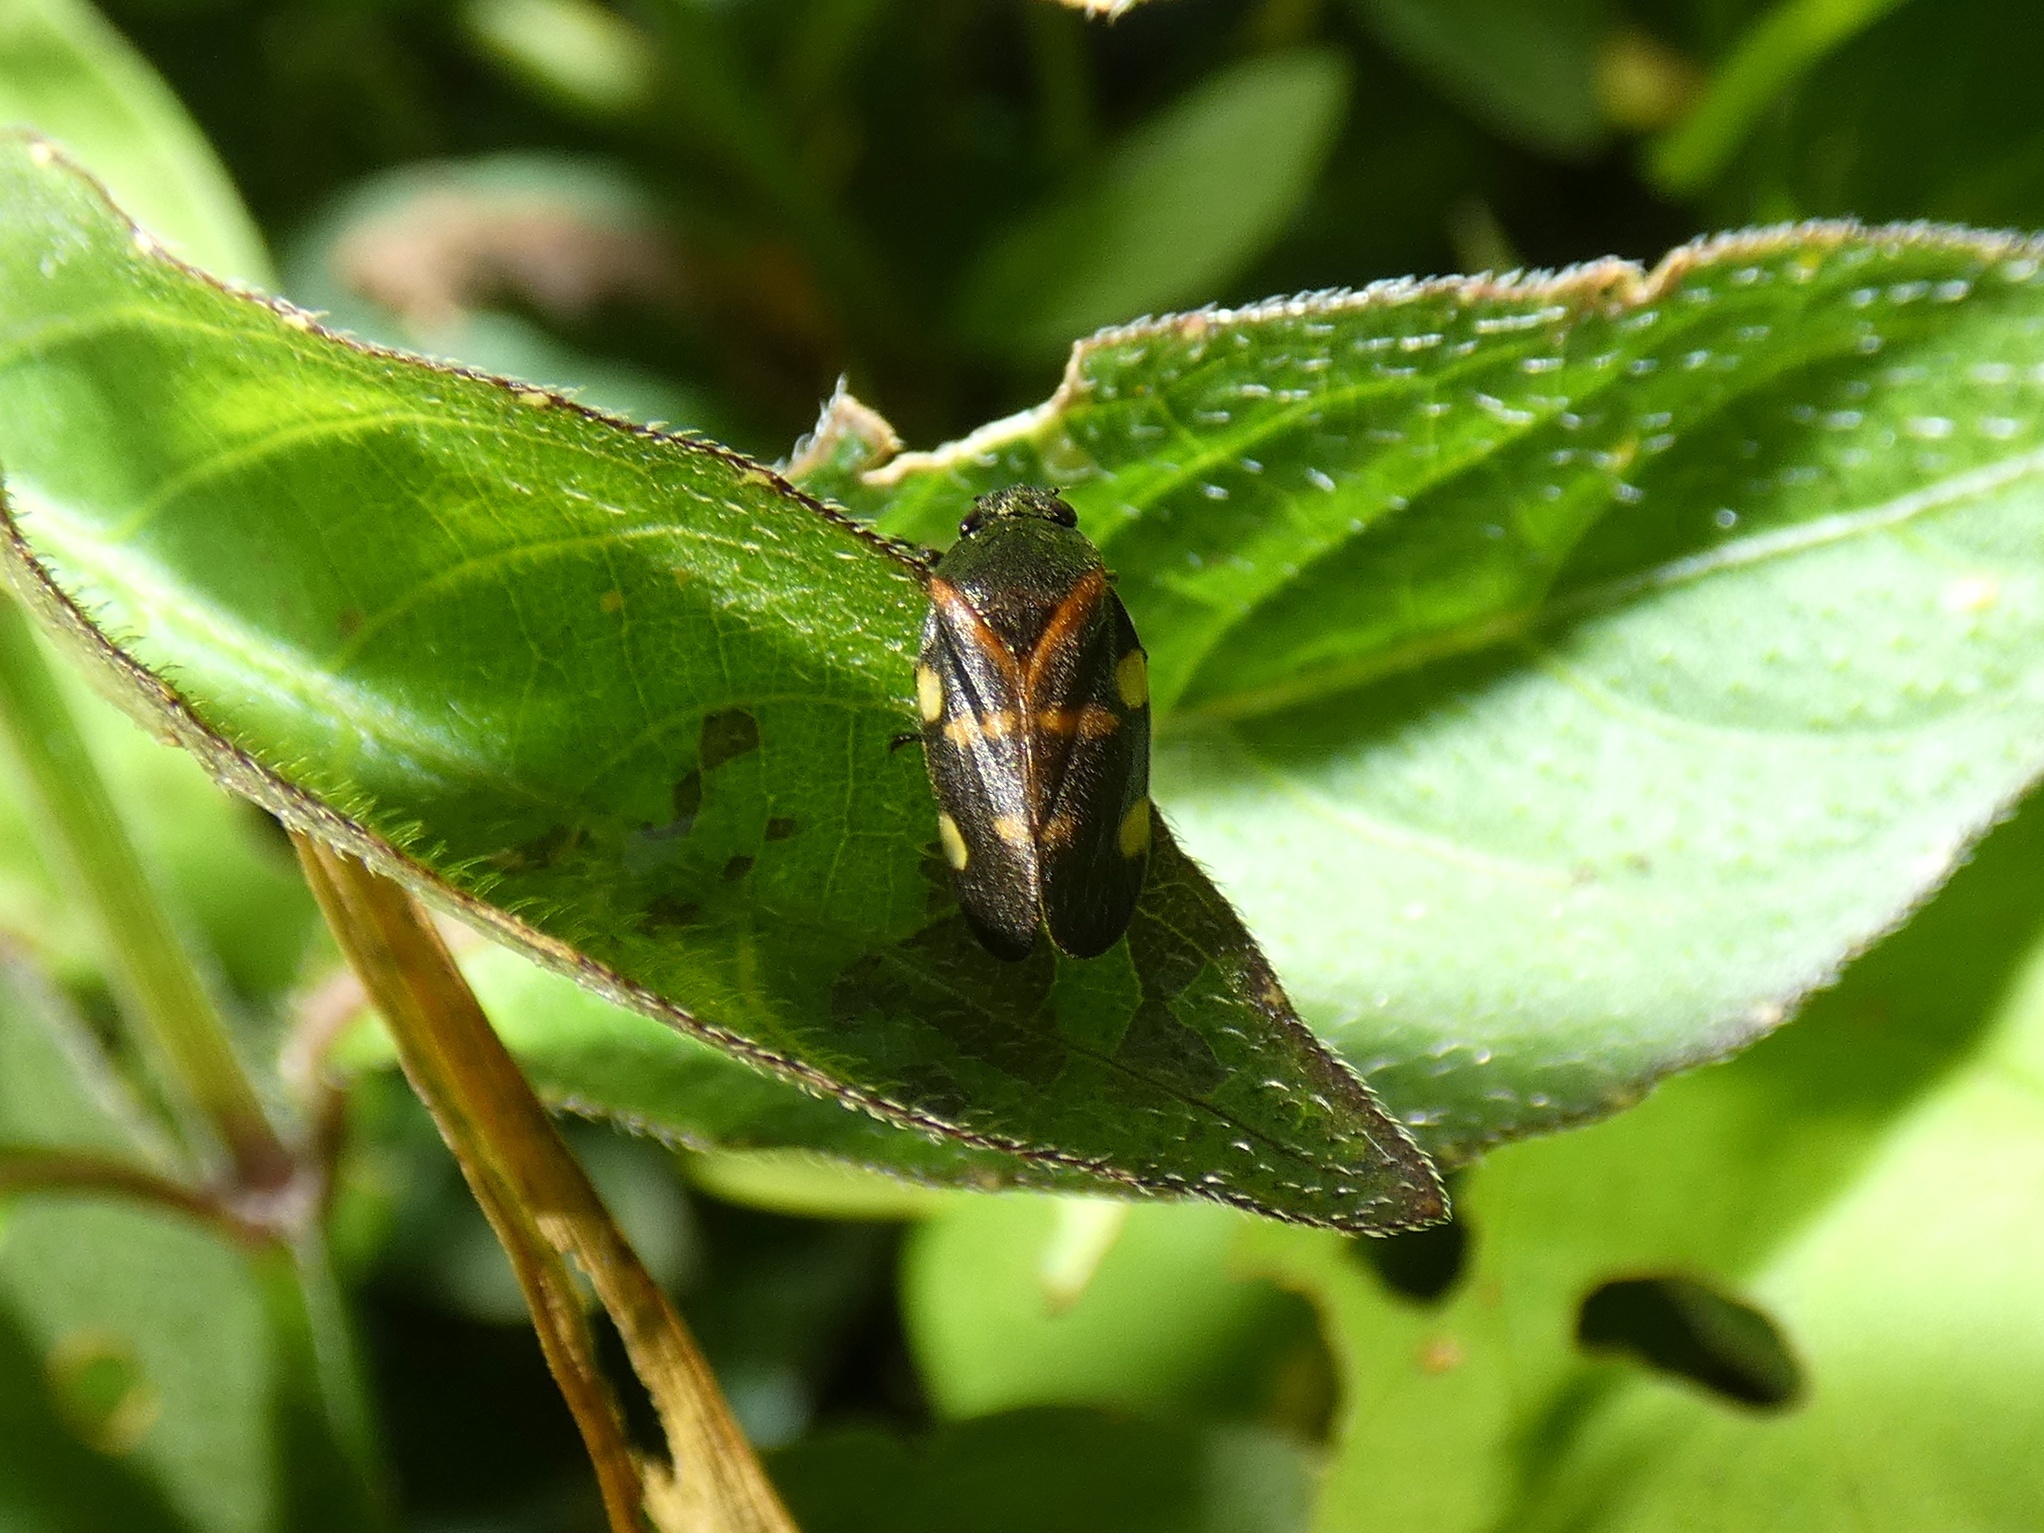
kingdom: Animalia
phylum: Arthropoda
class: Insecta
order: Hemiptera
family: Cercopidae
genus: Aeneolamia
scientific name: Aeneolamia lepidior
